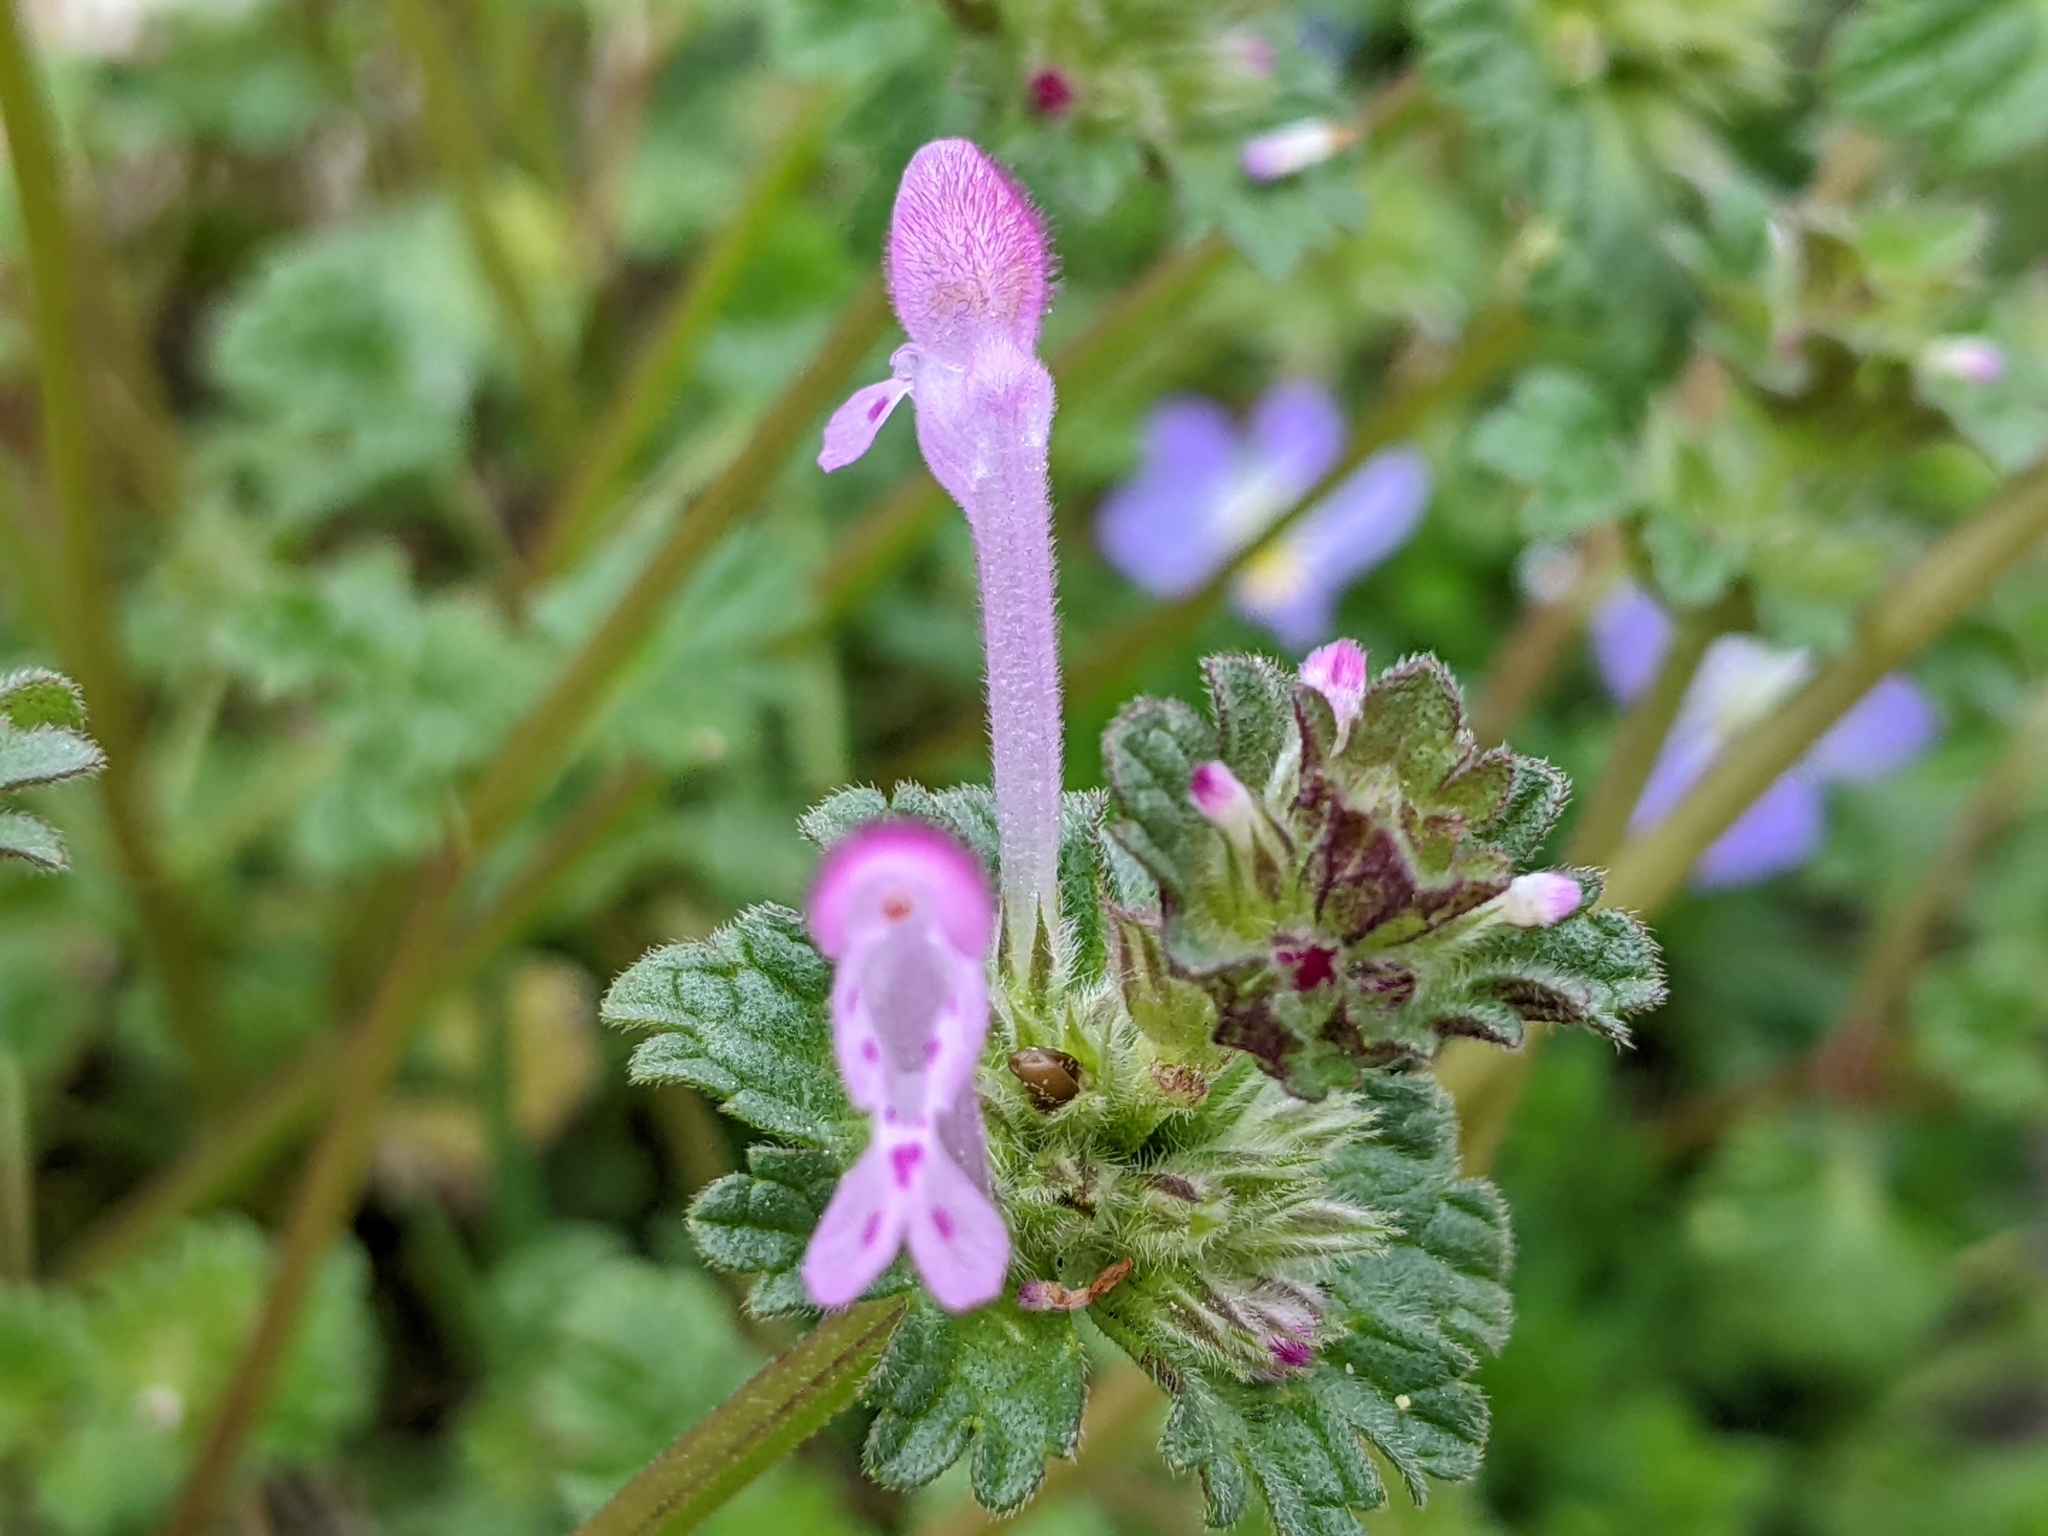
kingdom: Plantae
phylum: Tracheophyta
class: Magnoliopsida
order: Lamiales
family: Lamiaceae
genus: Lamium
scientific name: Lamium amplexicaule
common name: Henbit dead-nettle
